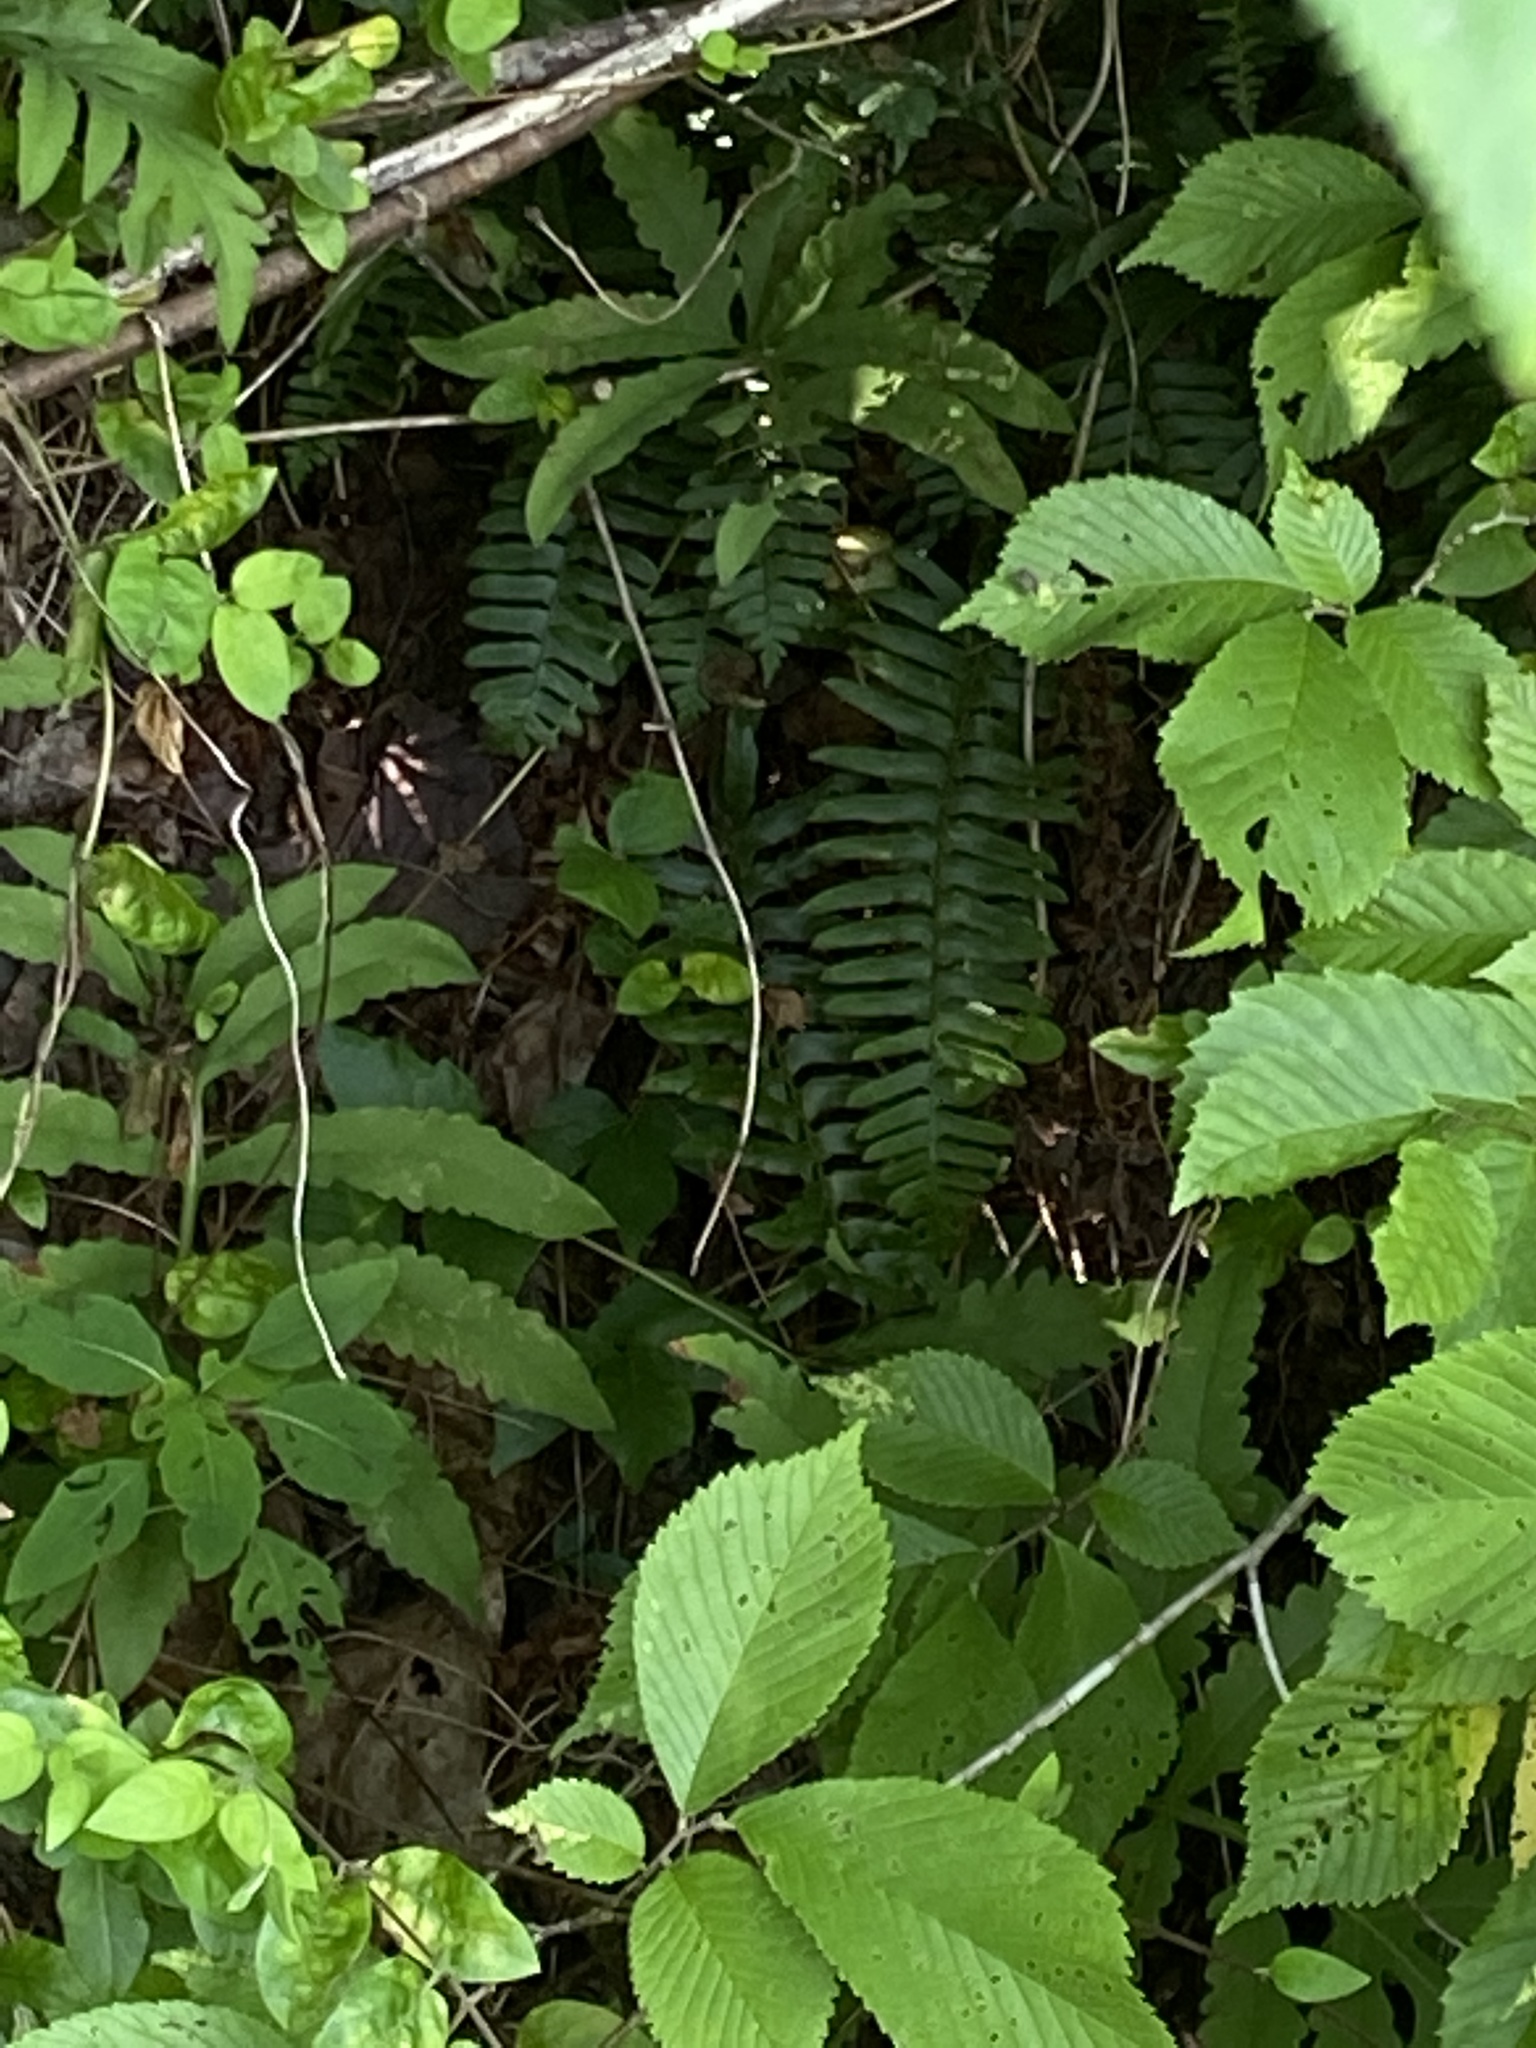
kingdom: Plantae
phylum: Tracheophyta
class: Polypodiopsida
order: Polypodiales
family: Dryopteridaceae
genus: Polystichum
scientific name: Polystichum acrostichoides
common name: Christmas fern
